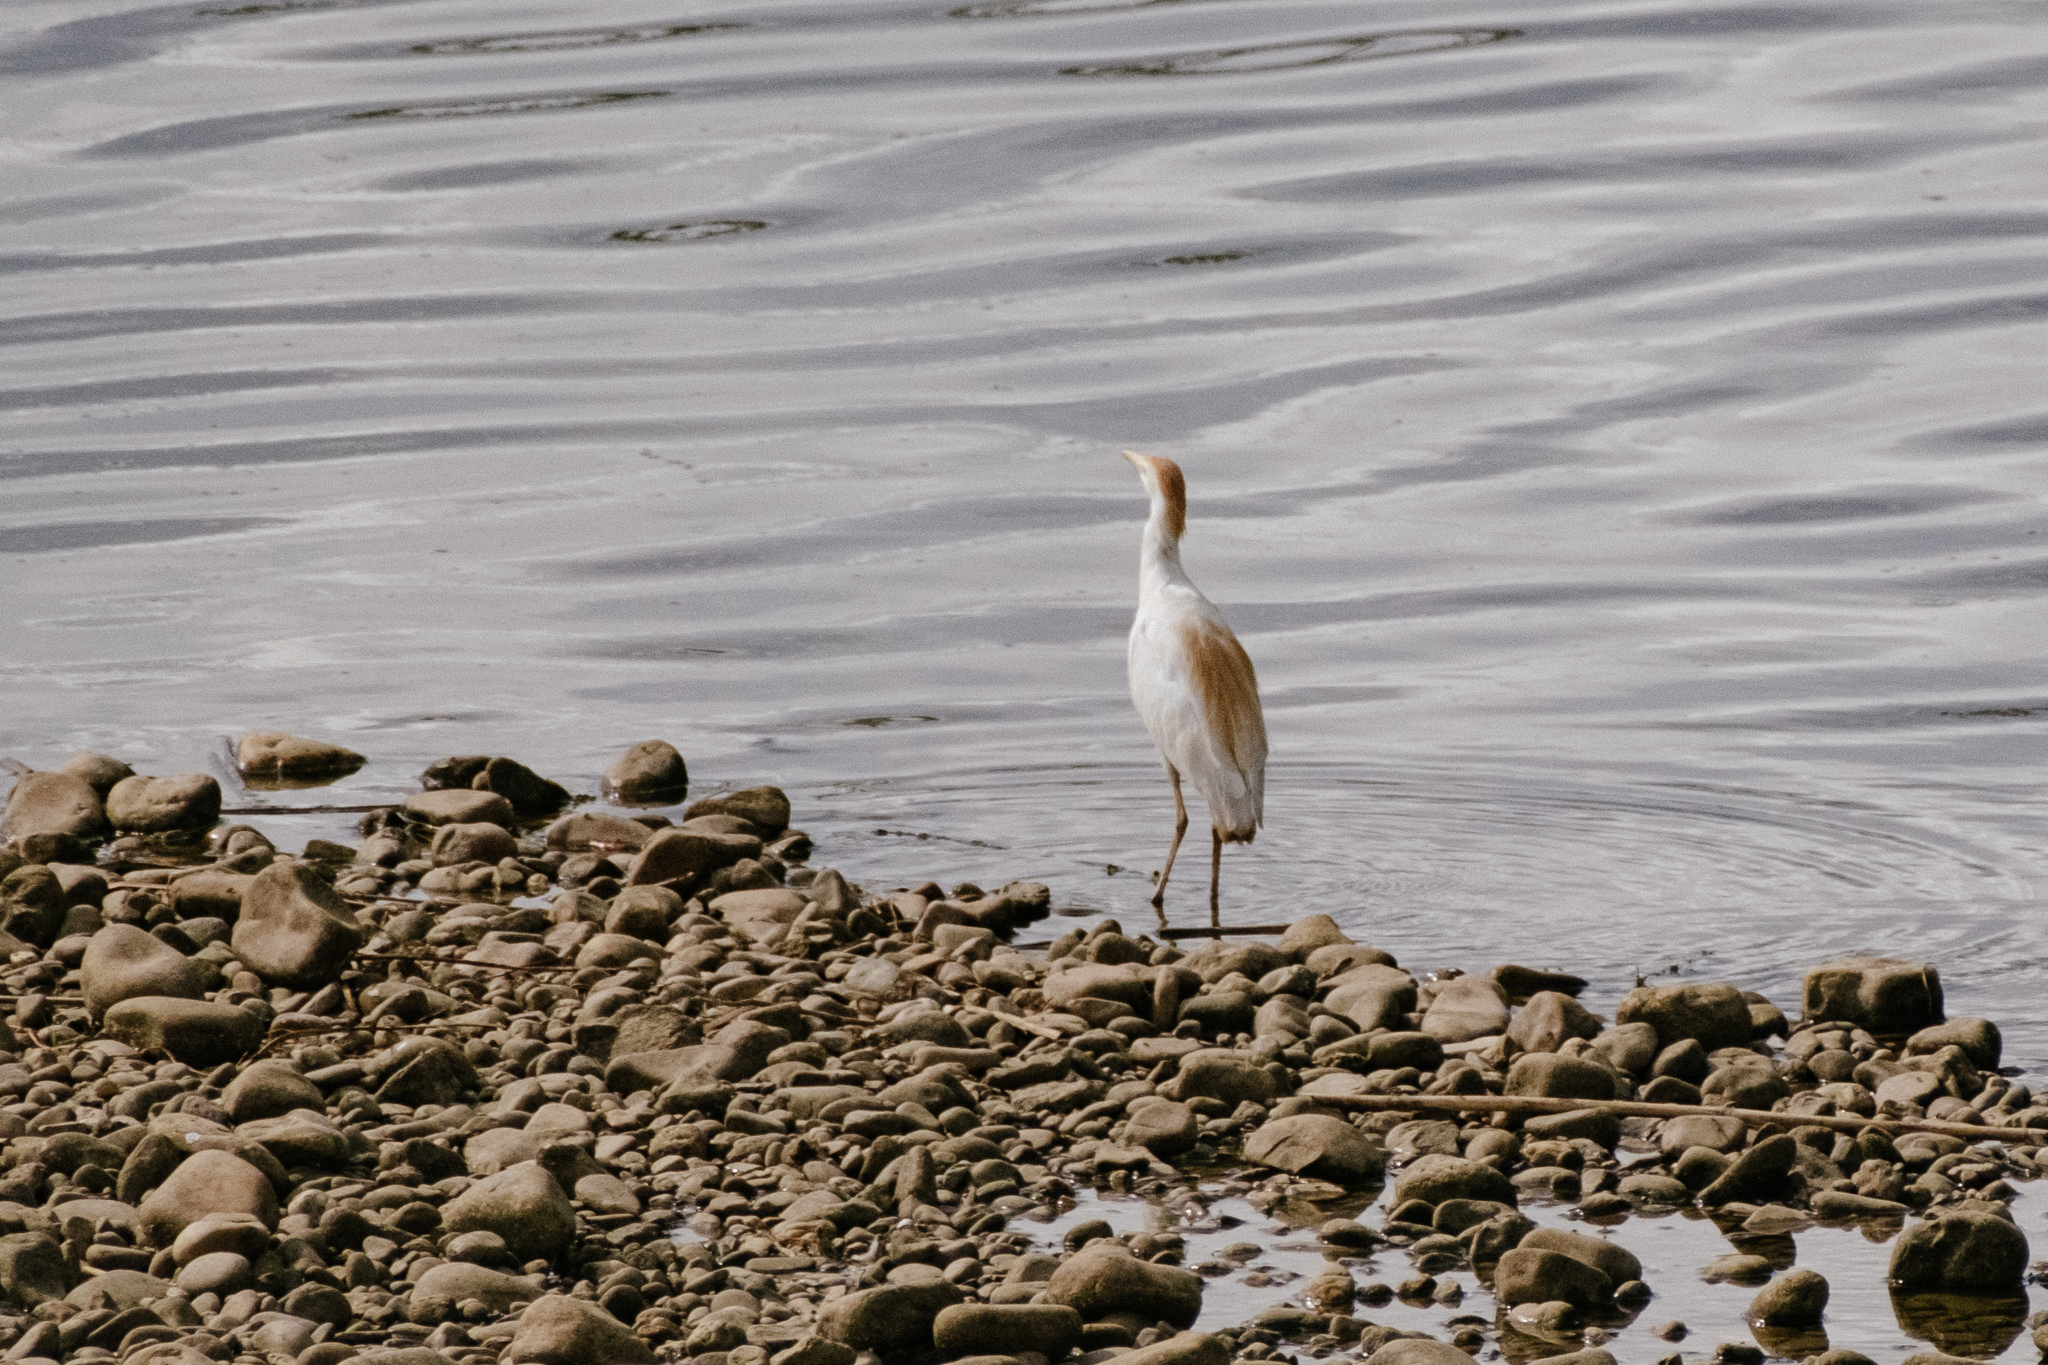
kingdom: Animalia
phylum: Chordata
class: Aves
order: Pelecaniformes
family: Ardeidae
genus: Bubulcus
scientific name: Bubulcus ibis
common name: Cattle egret
